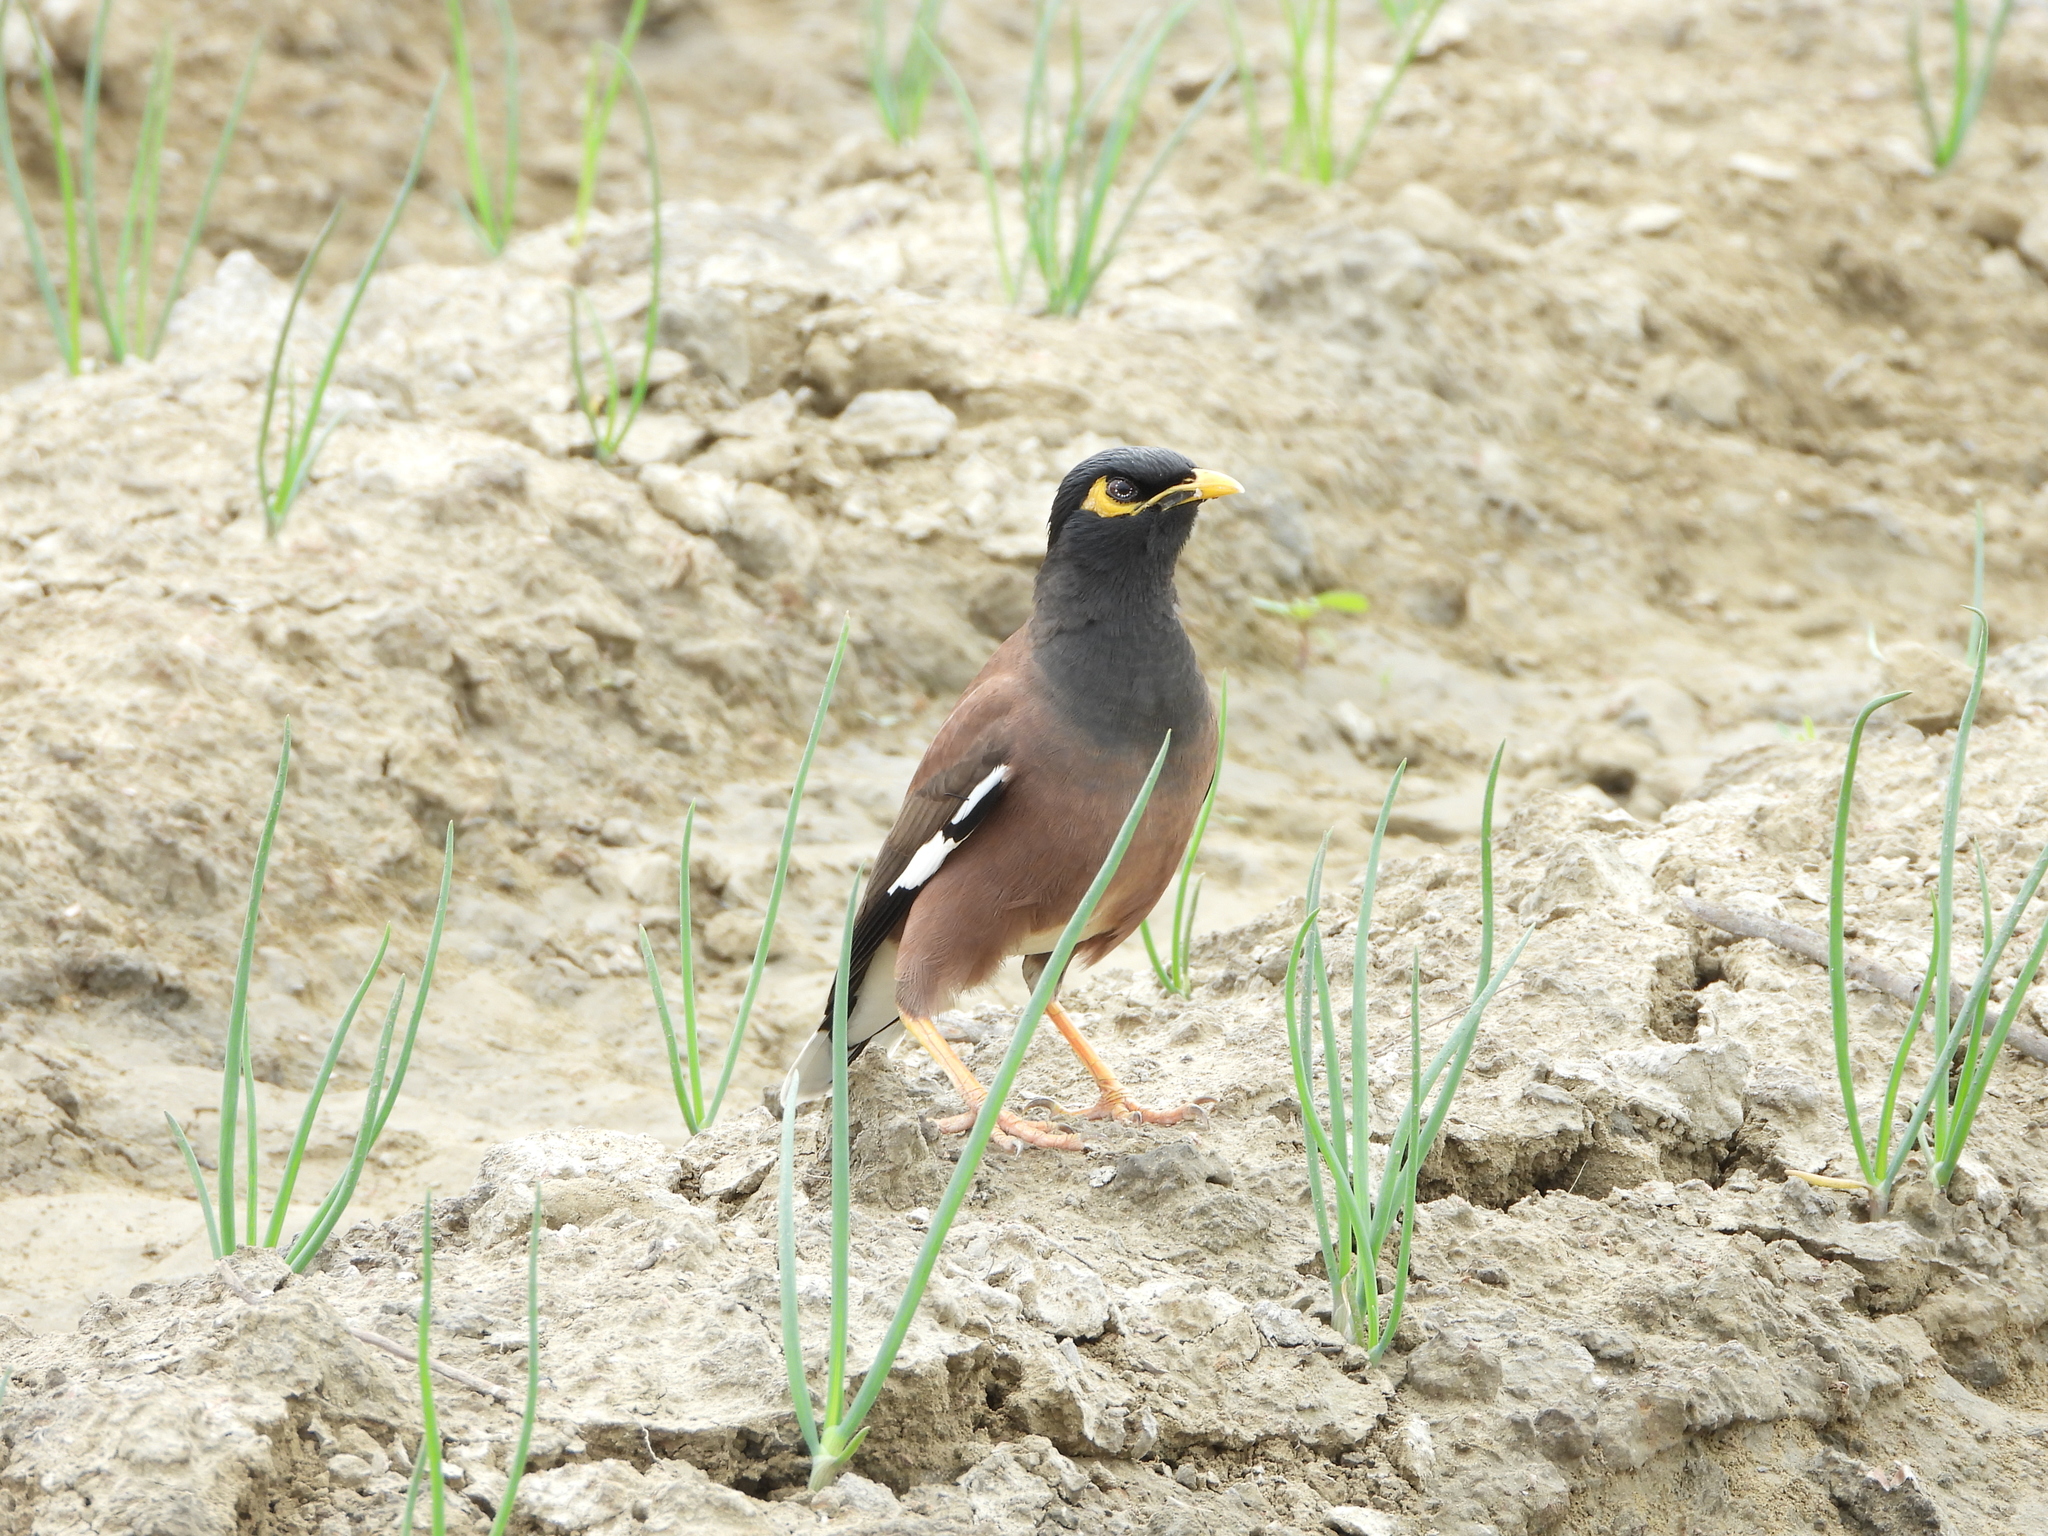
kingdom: Animalia
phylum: Chordata
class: Aves
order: Passeriformes
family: Sturnidae
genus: Acridotheres
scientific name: Acridotheres tristis
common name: Common myna
